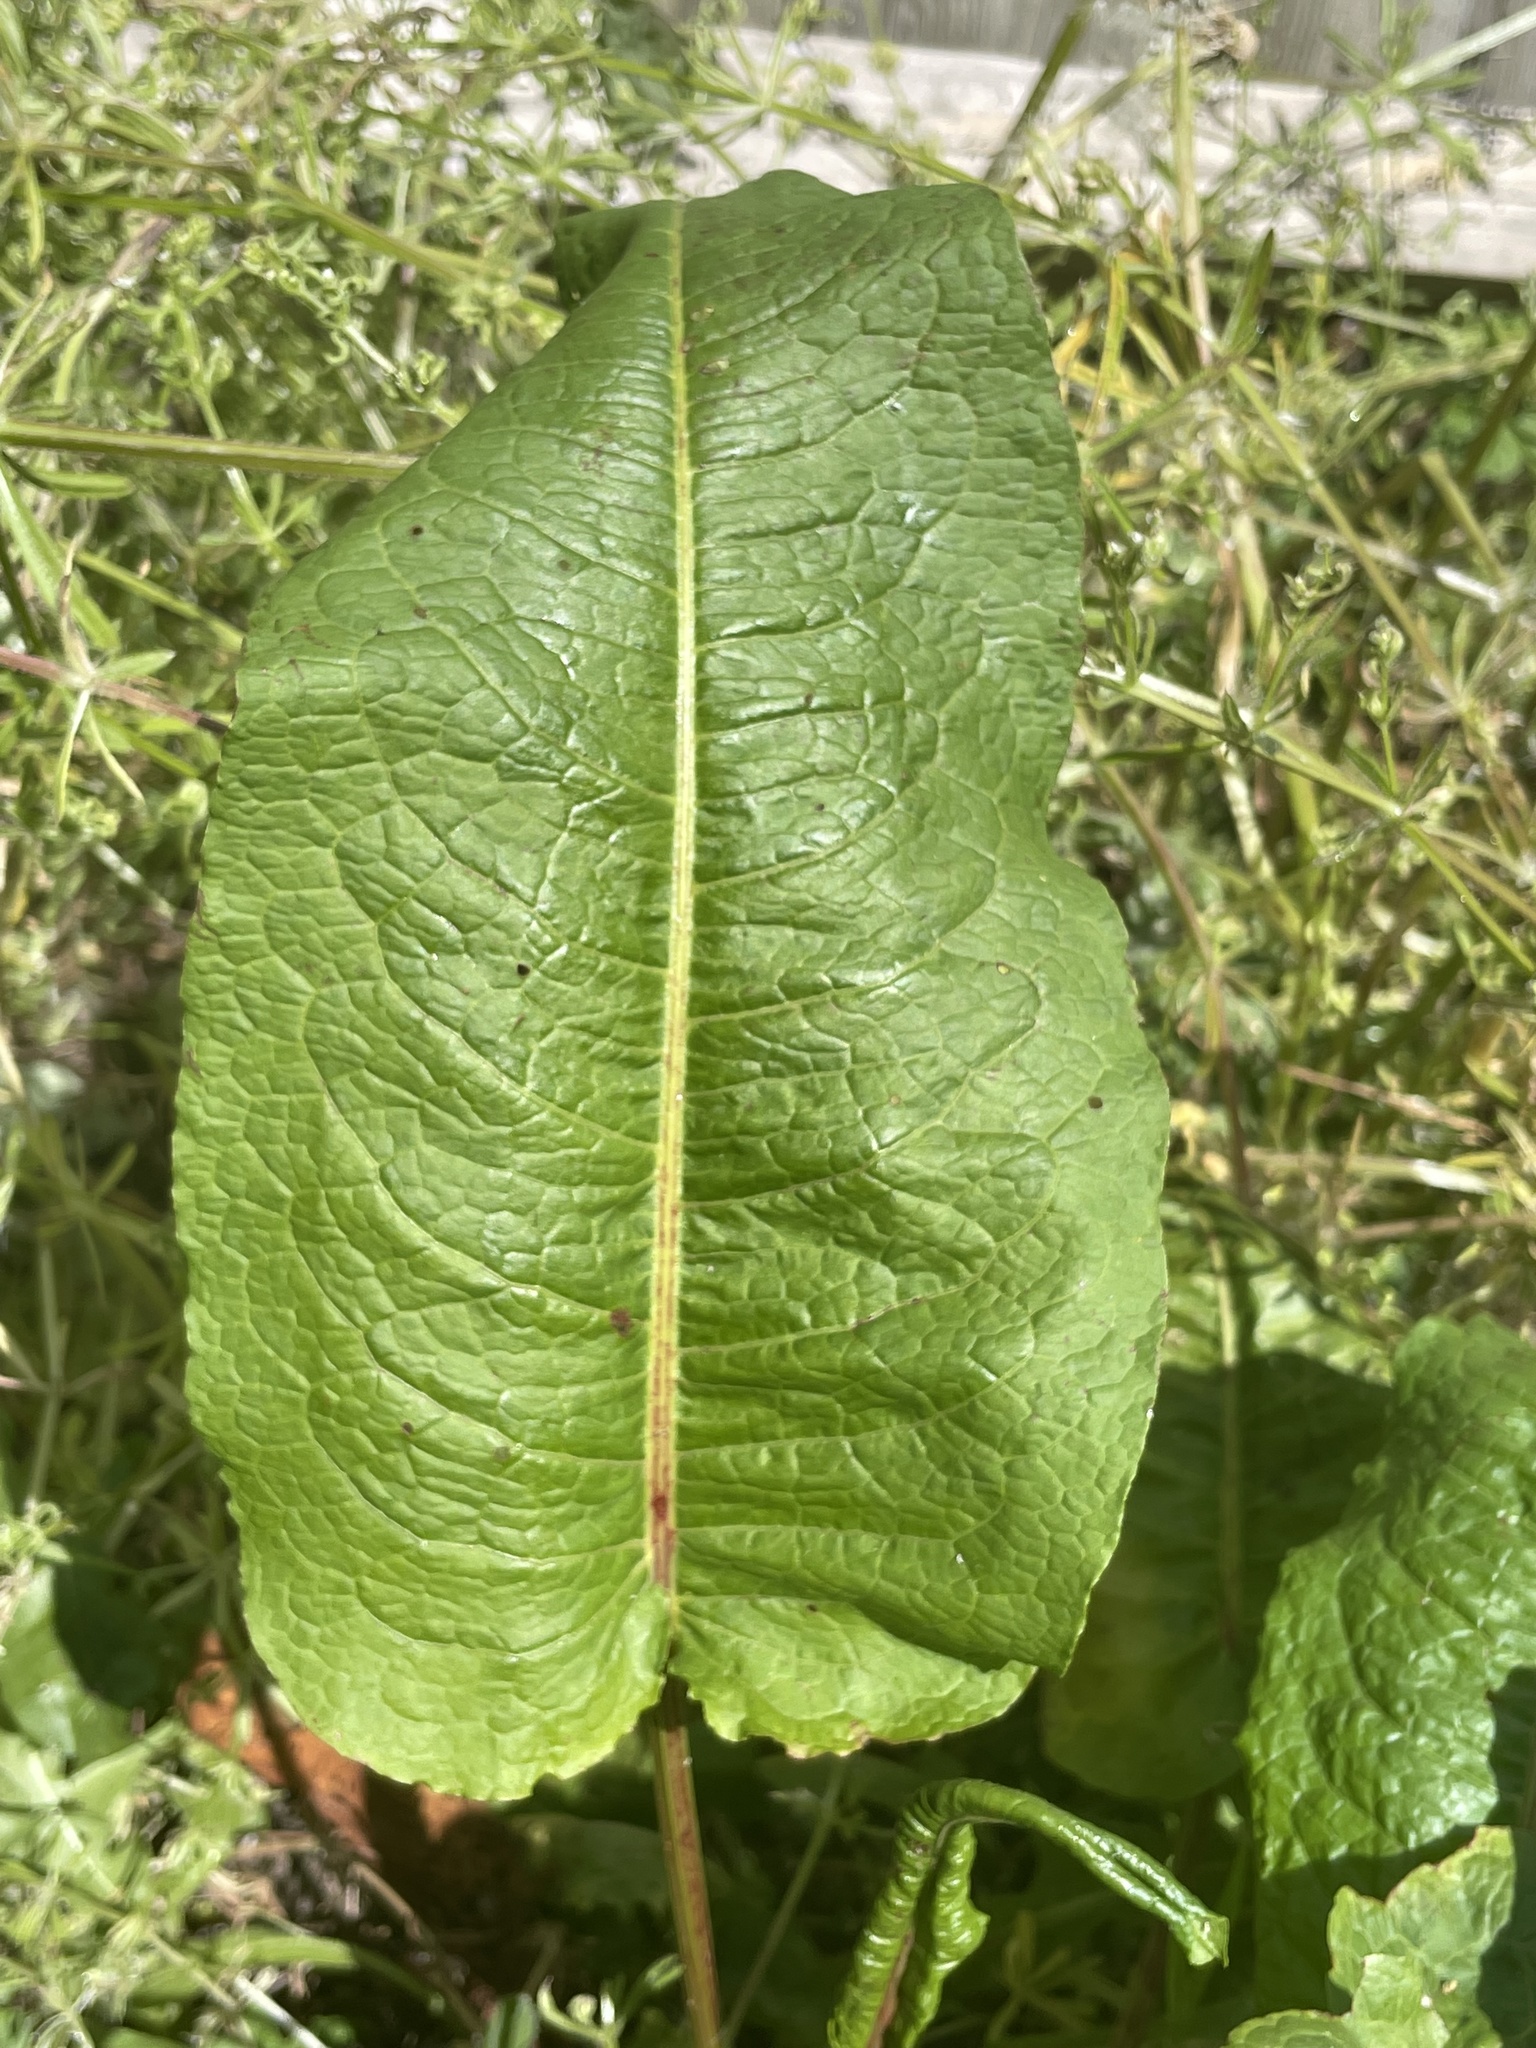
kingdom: Plantae
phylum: Tracheophyta
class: Magnoliopsida
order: Caryophyllales
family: Polygonaceae
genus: Rumex
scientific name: Rumex obtusifolius
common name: Bitter dock
